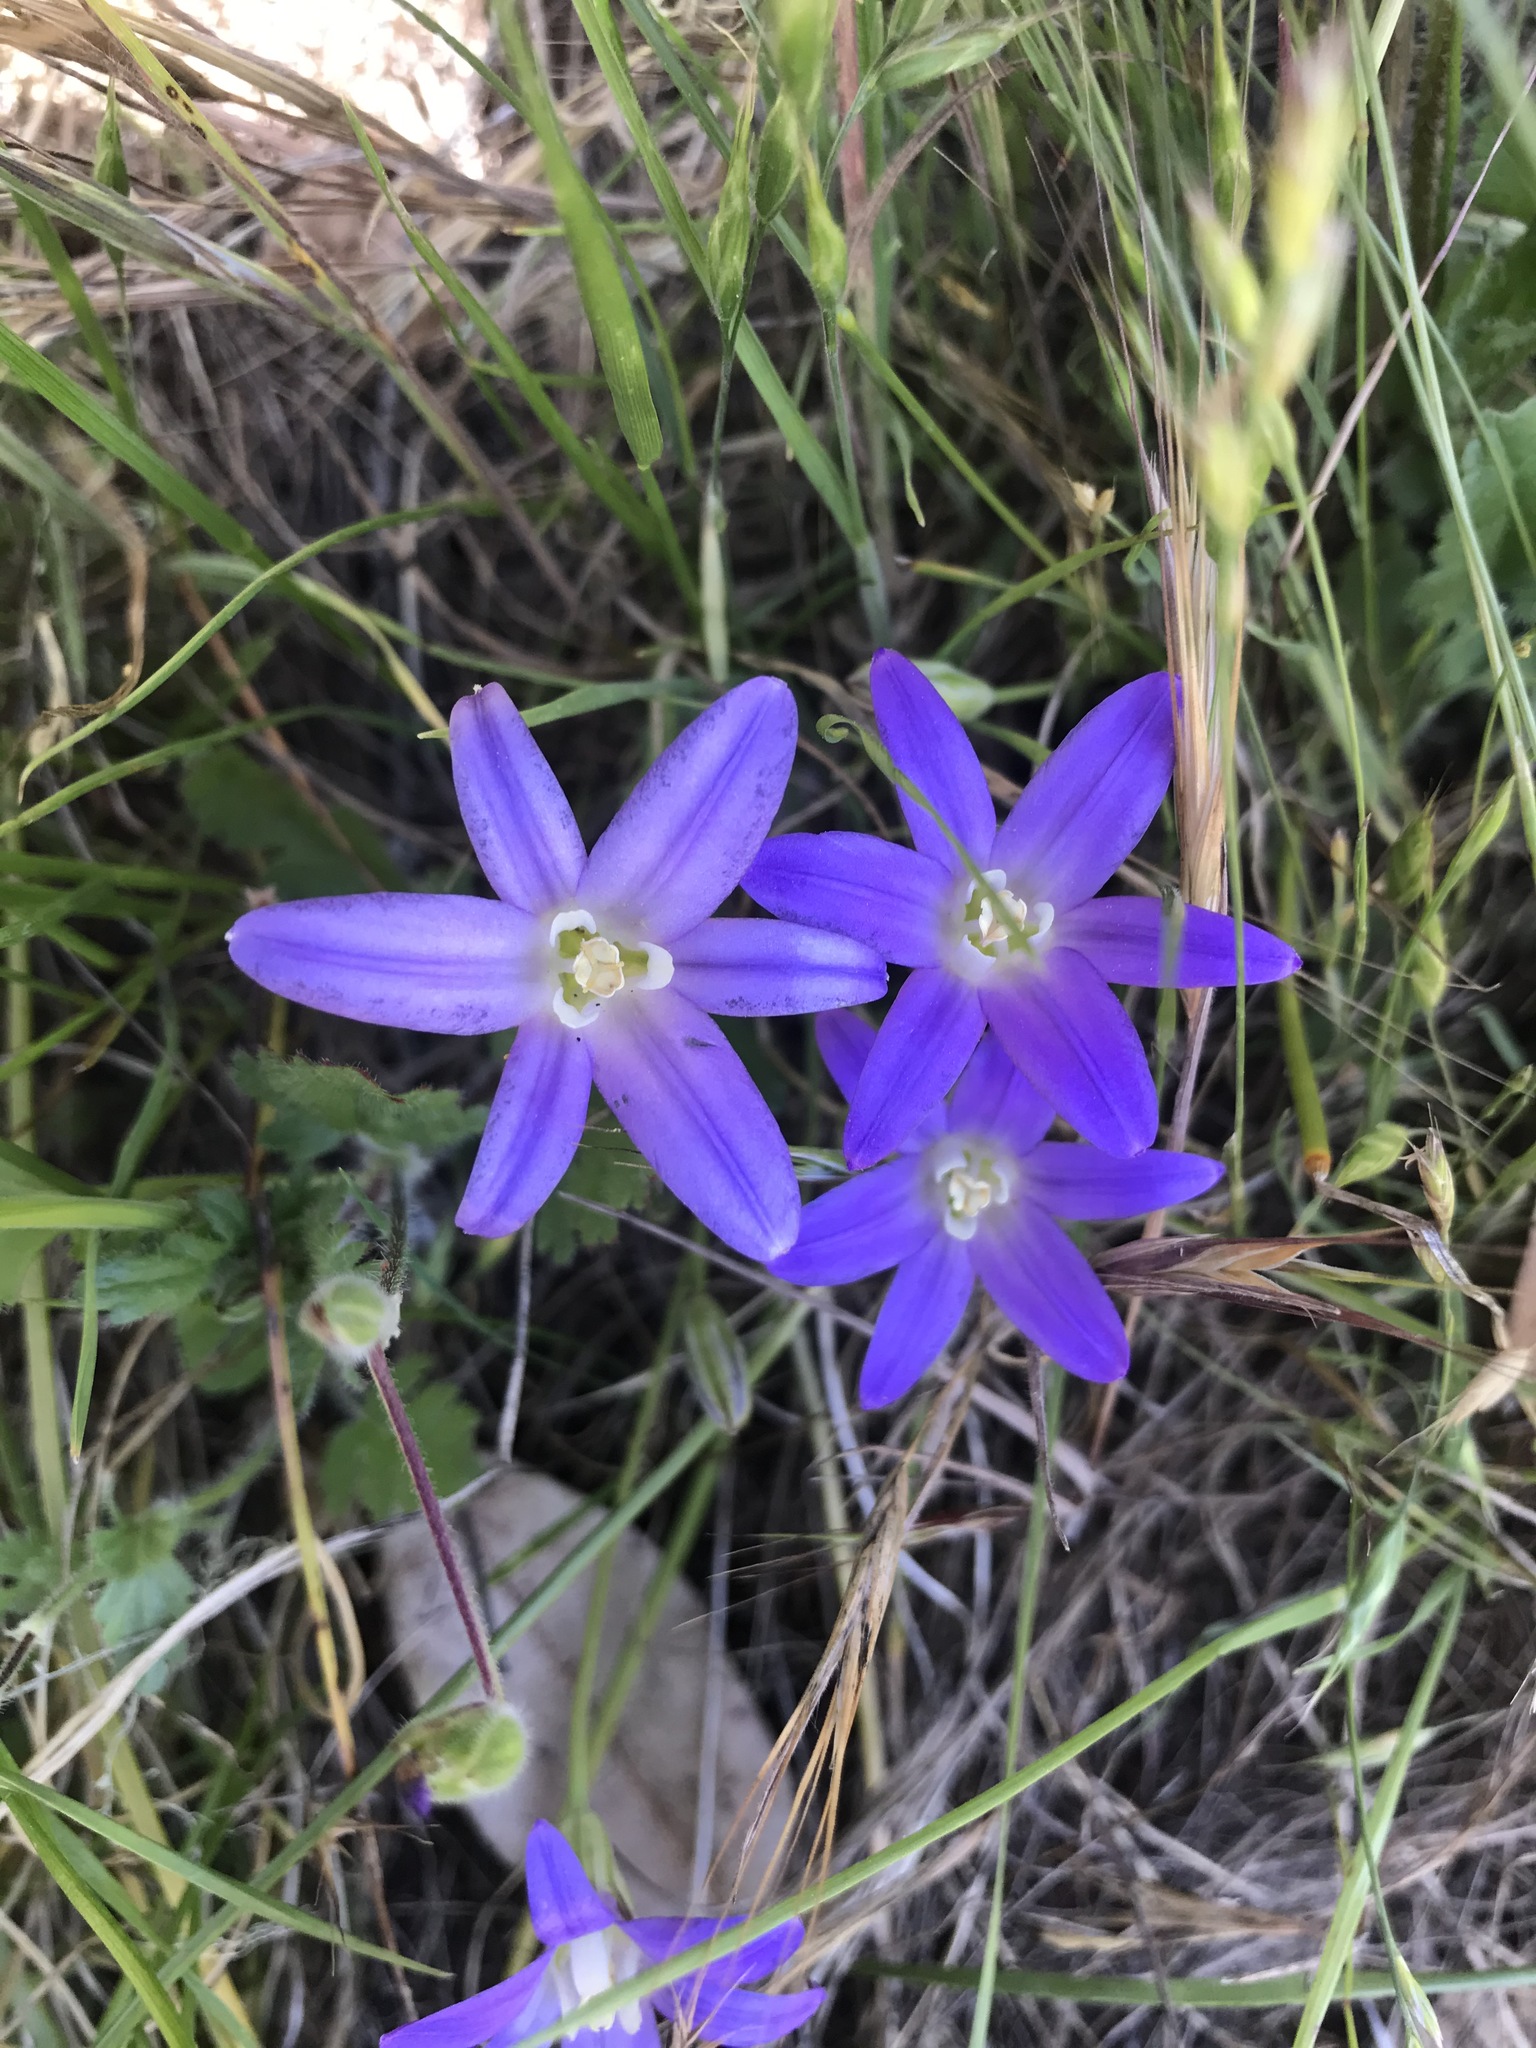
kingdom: Plantae
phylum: Tracheophyta
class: Liliopsida
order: Asparagales
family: Asparagaceae
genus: Brodiaea
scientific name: Brodiaea terrestris
